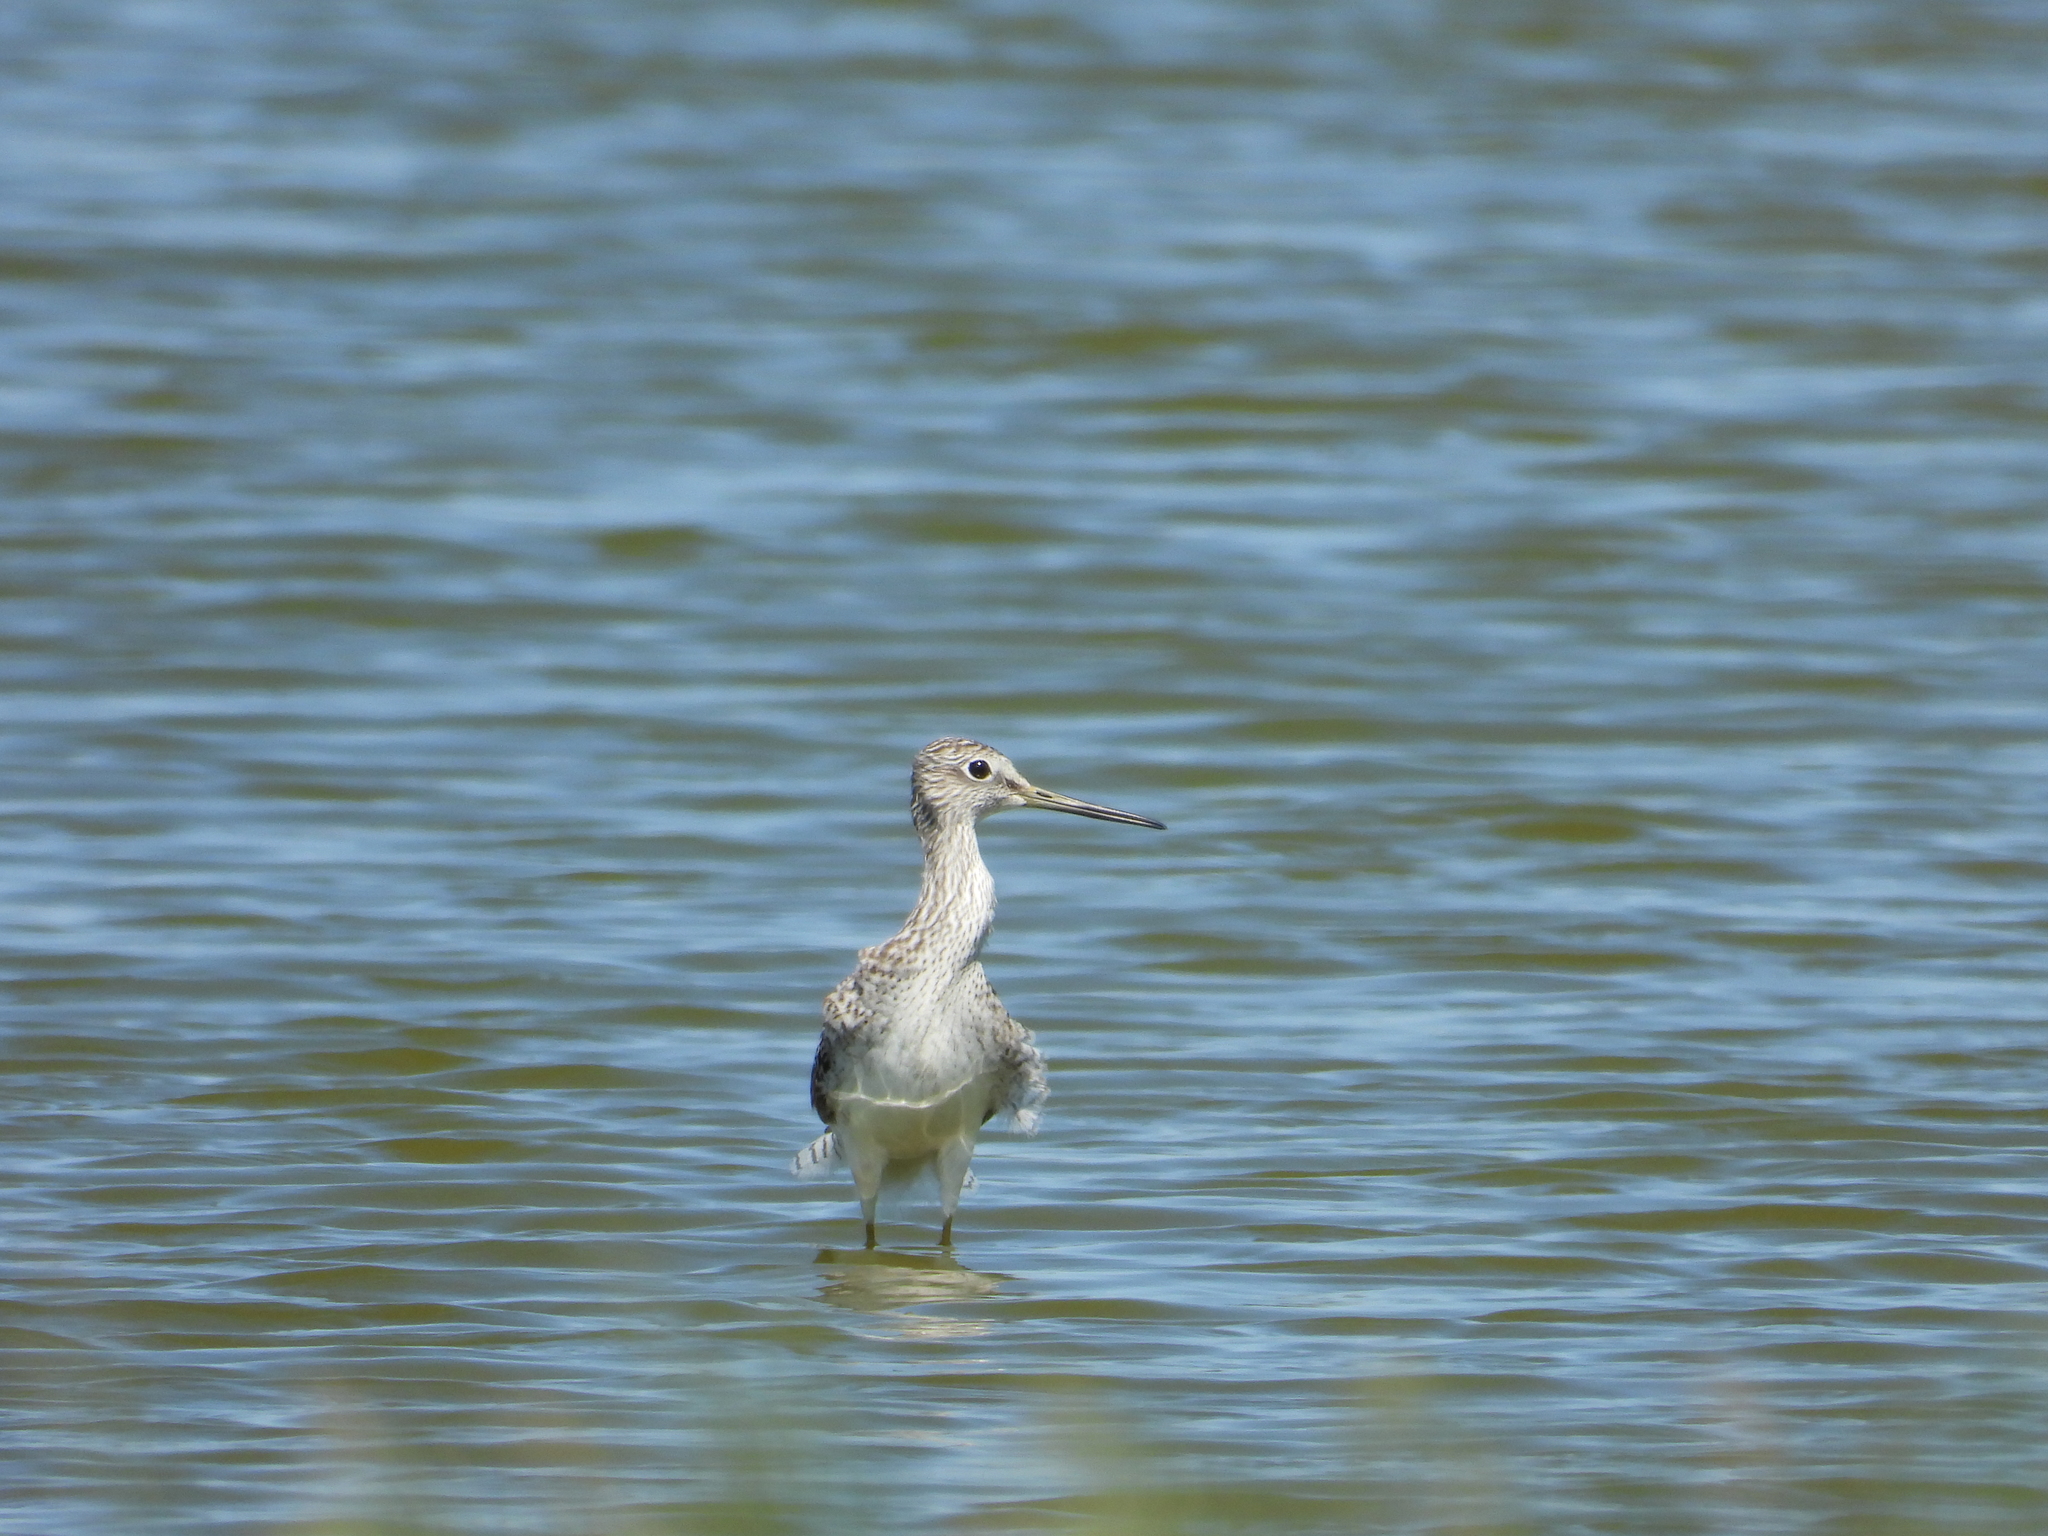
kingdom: Animalia
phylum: Chordata
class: Aves
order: Charadriiformes
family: Scolopacidae
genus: Tringa
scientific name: Tringa melanoleuca
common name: Greater yellowlegs
